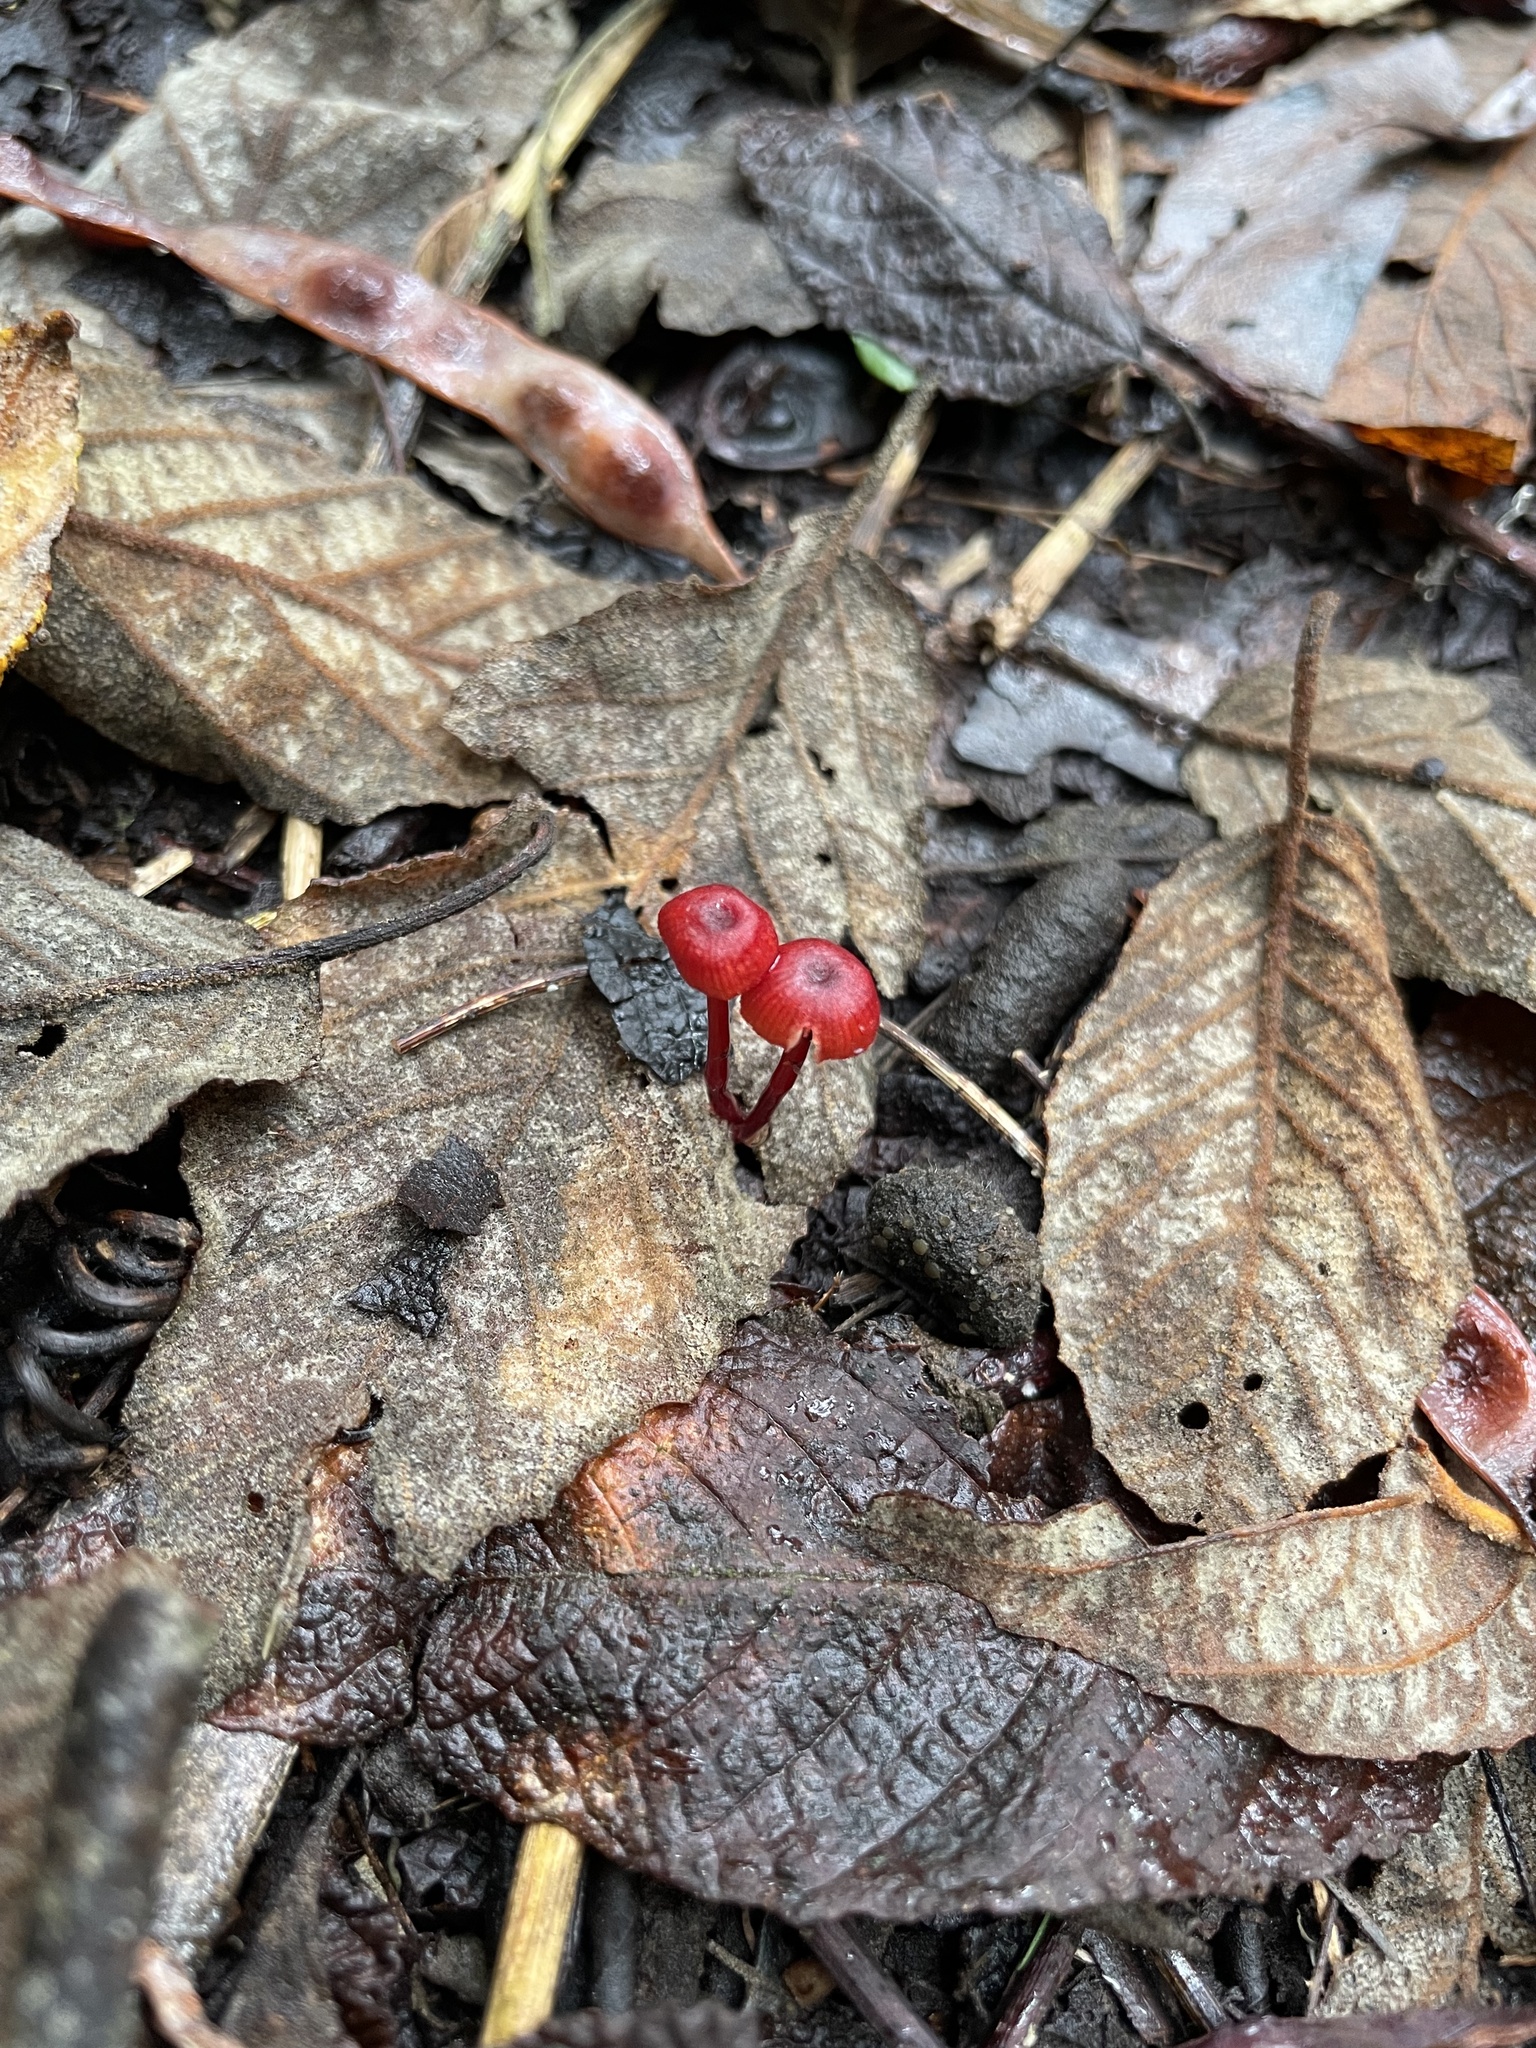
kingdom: Fungi
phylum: Basidiomycota
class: Agaricomycetes
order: Agaricales
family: Mycenaceae
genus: Cruentomycena
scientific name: Cruentomycena viscidocruenta
